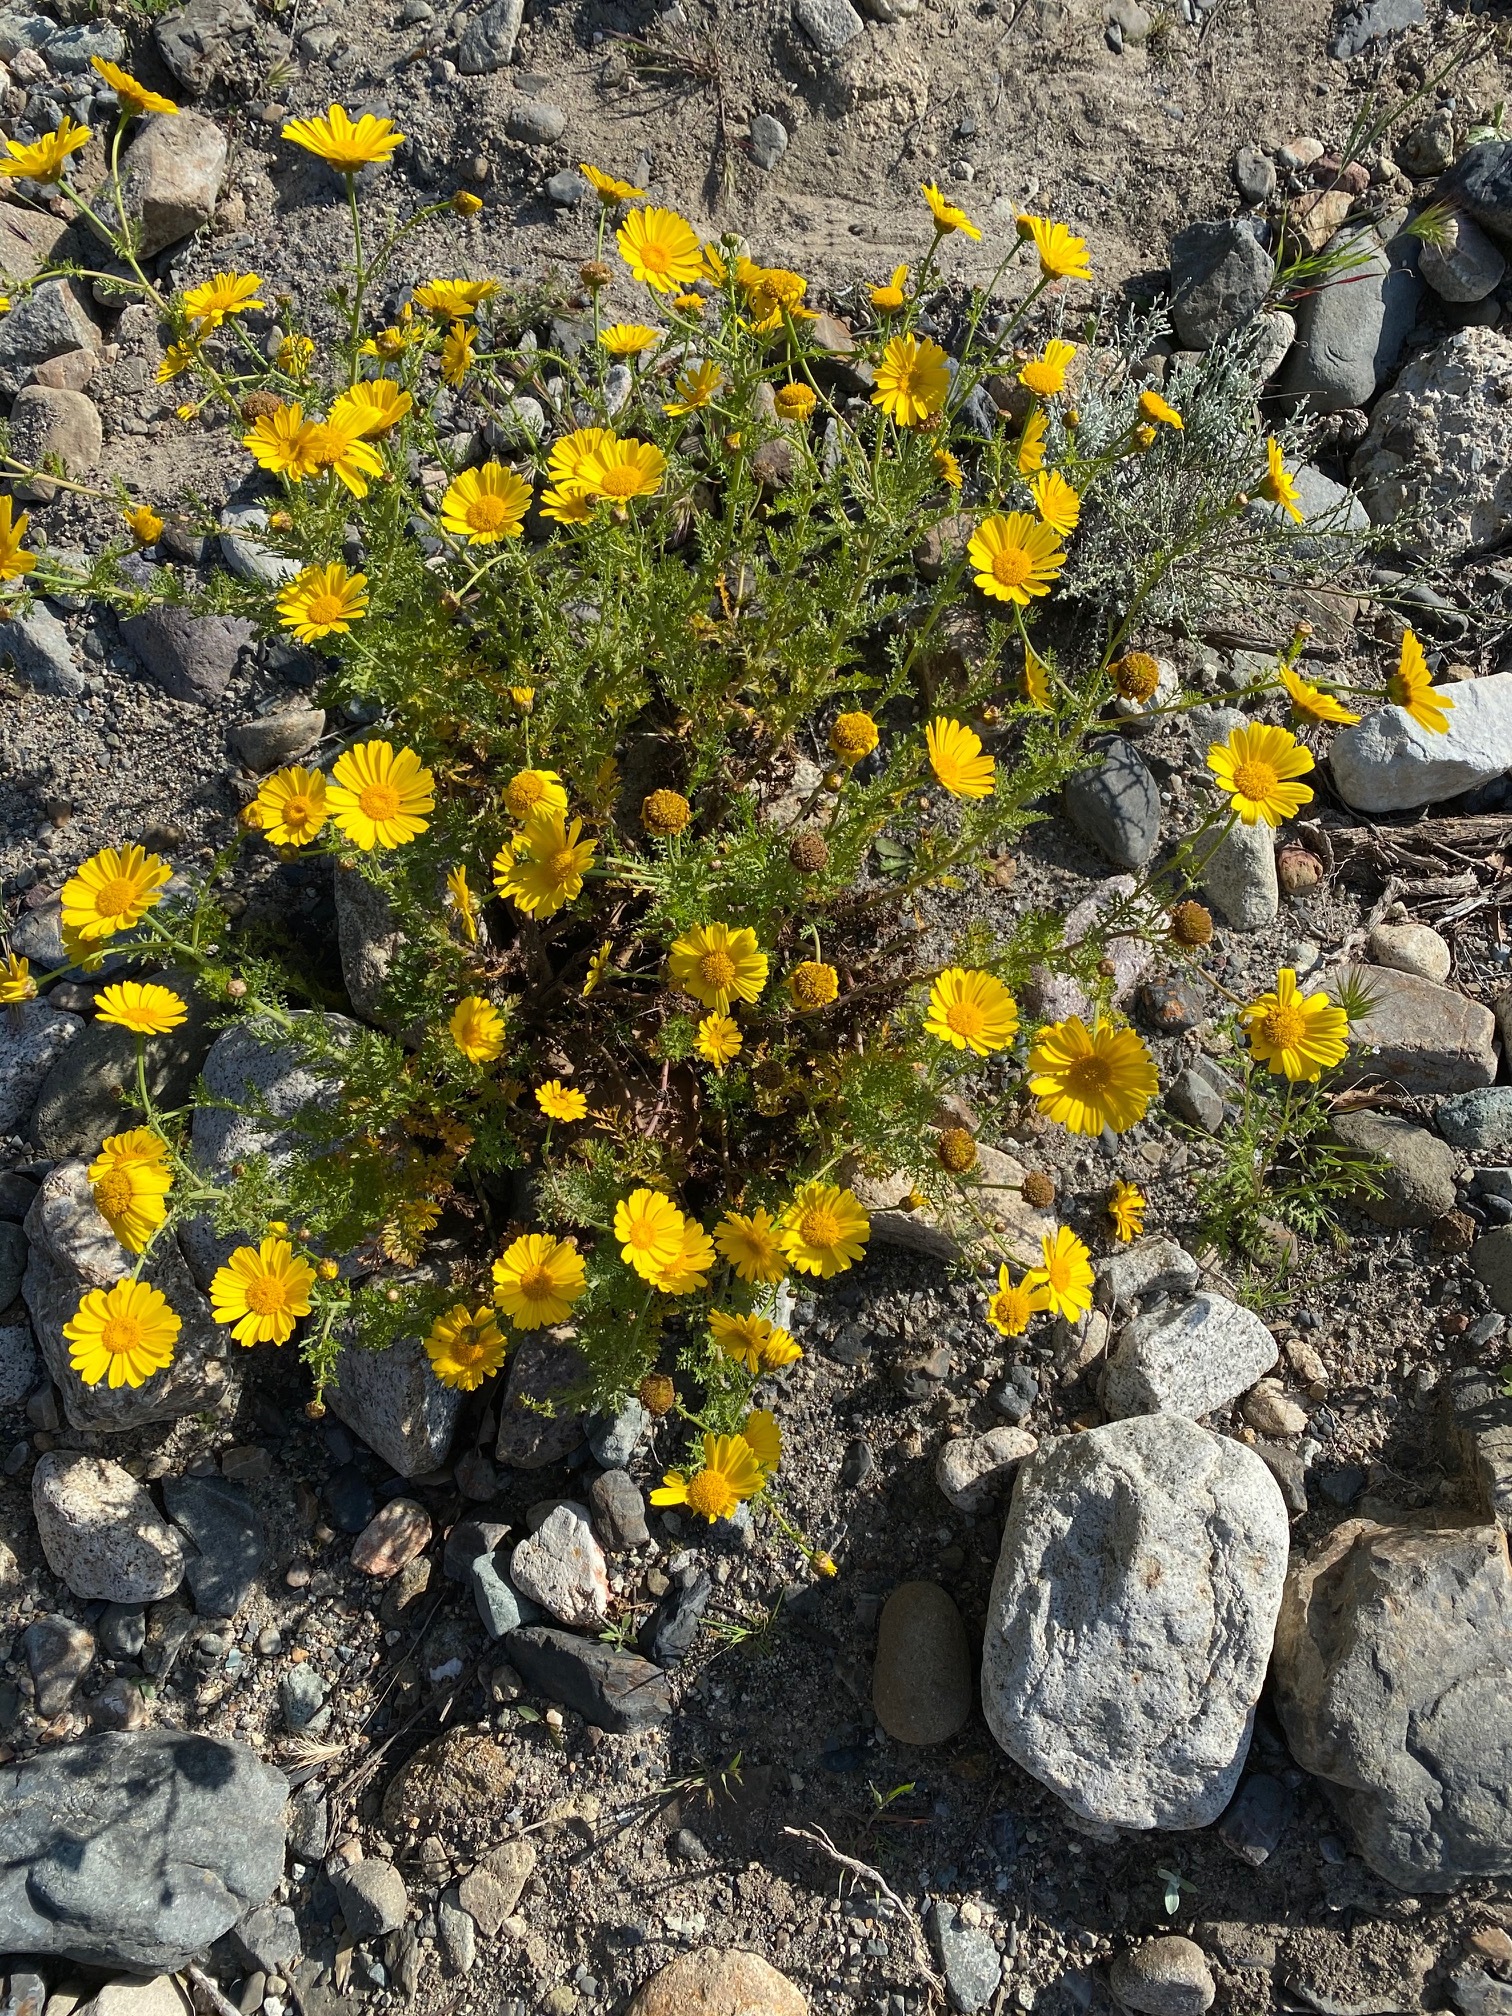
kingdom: Plantae
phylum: Tracheophyta
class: Magnoliopsida
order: Asterales
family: Asteraceae
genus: Glebionis
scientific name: Glebionis coronaria
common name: Crowndaisy
